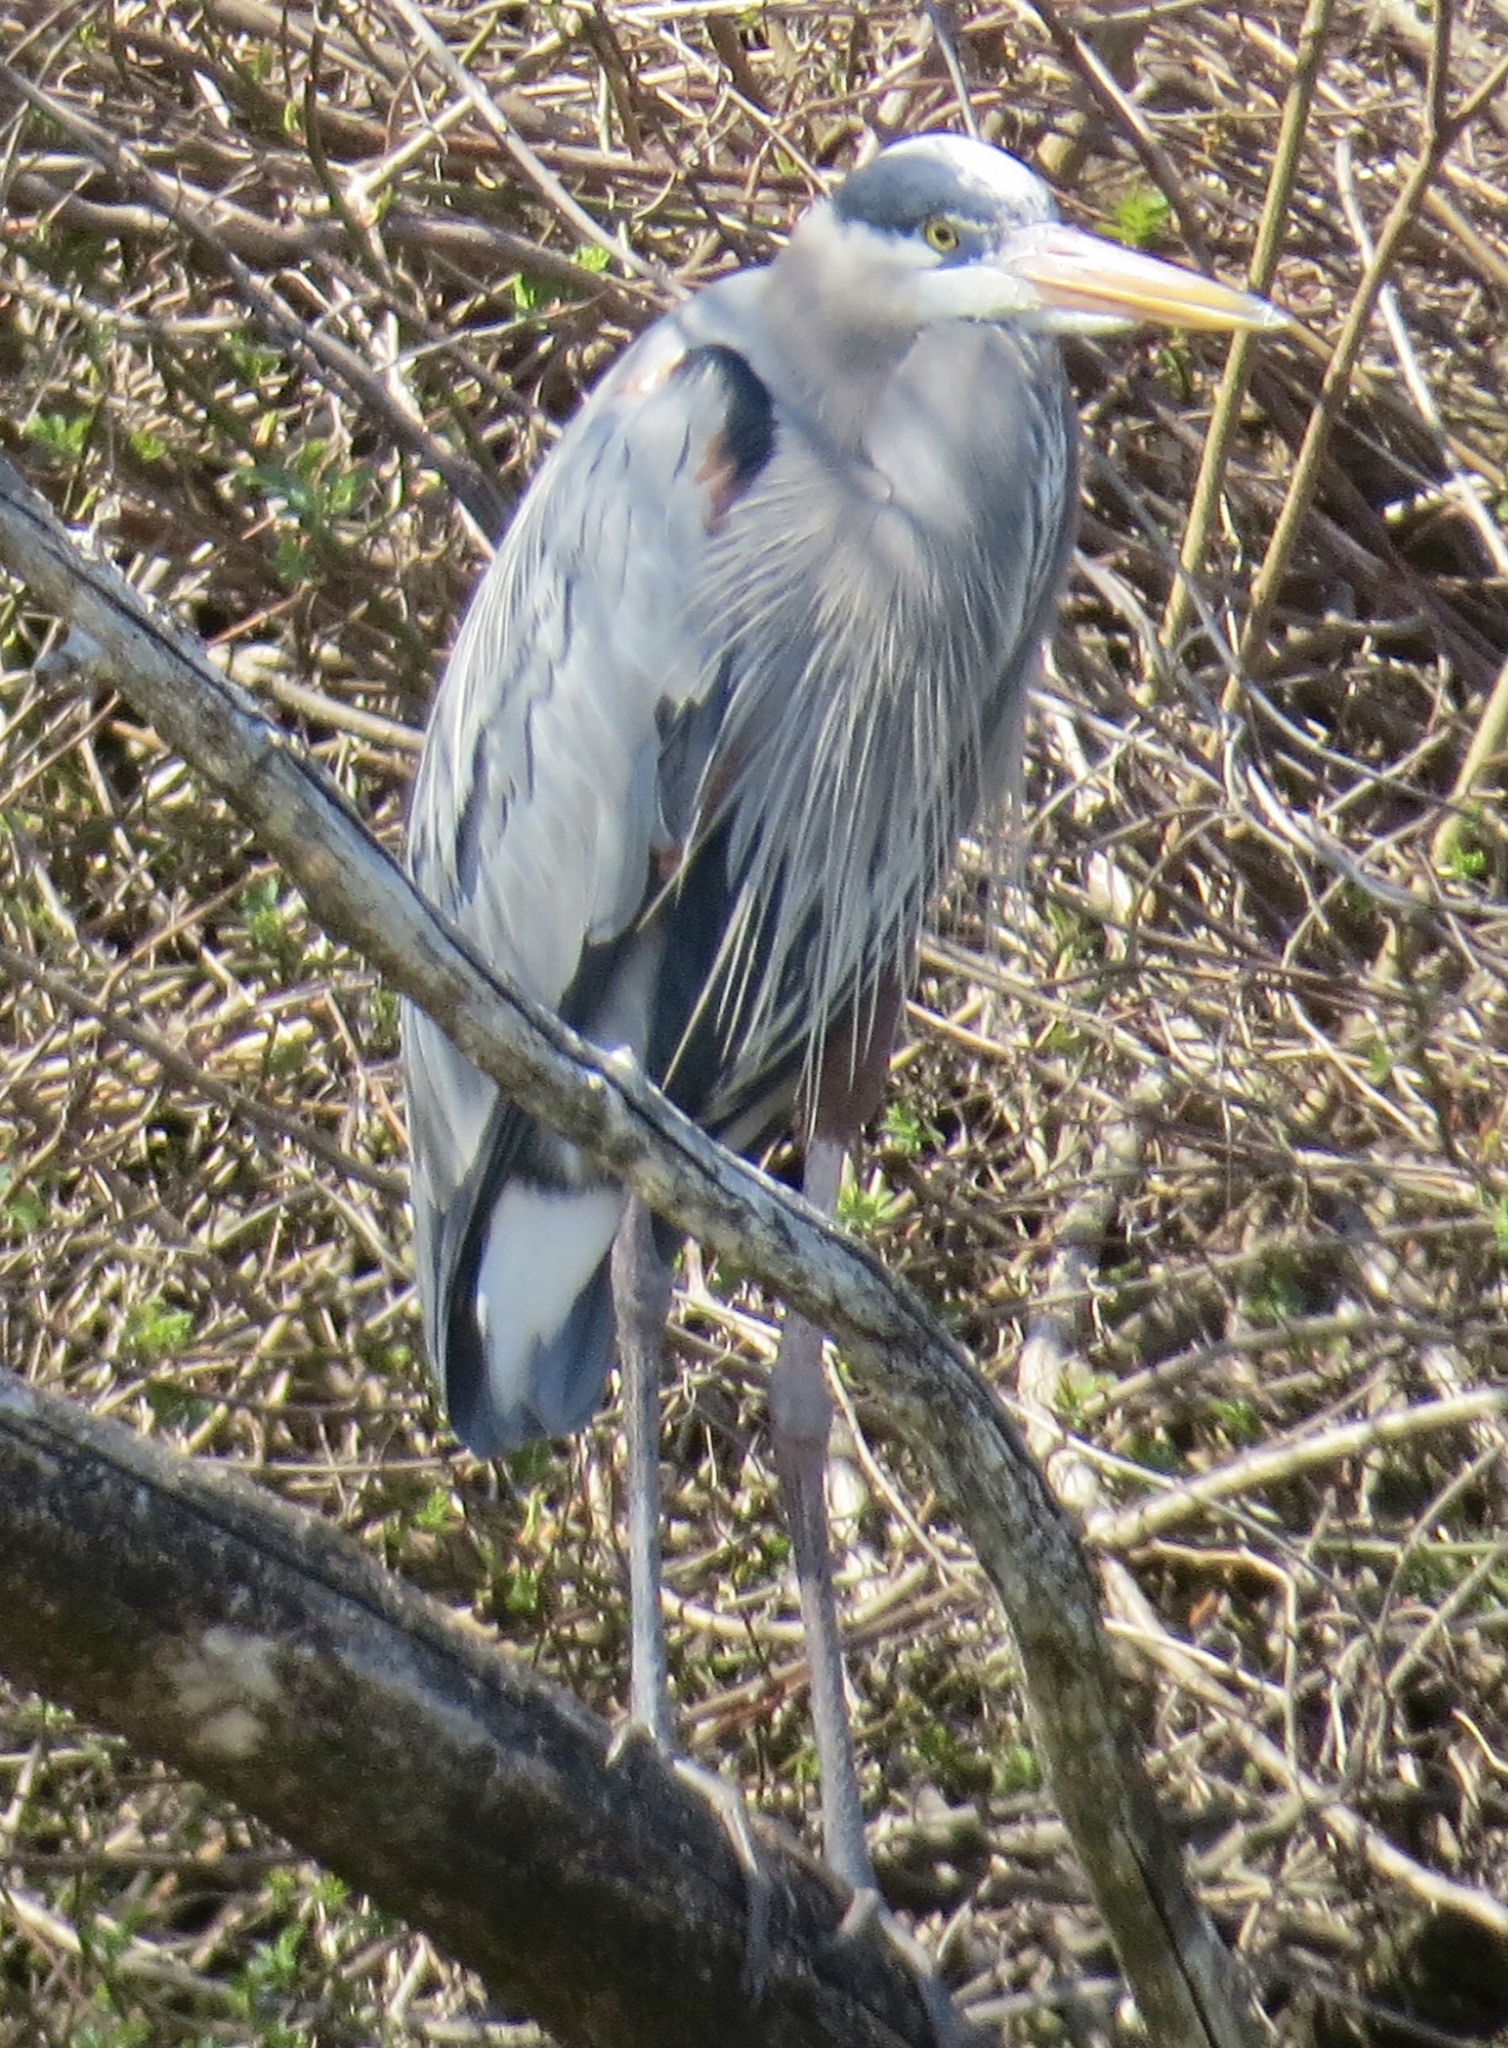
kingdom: Animalia
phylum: Chordata
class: Aves
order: Pelecaniformes
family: Ardeidae
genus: Ardea
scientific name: Ardea herodias
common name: Great blue heron
